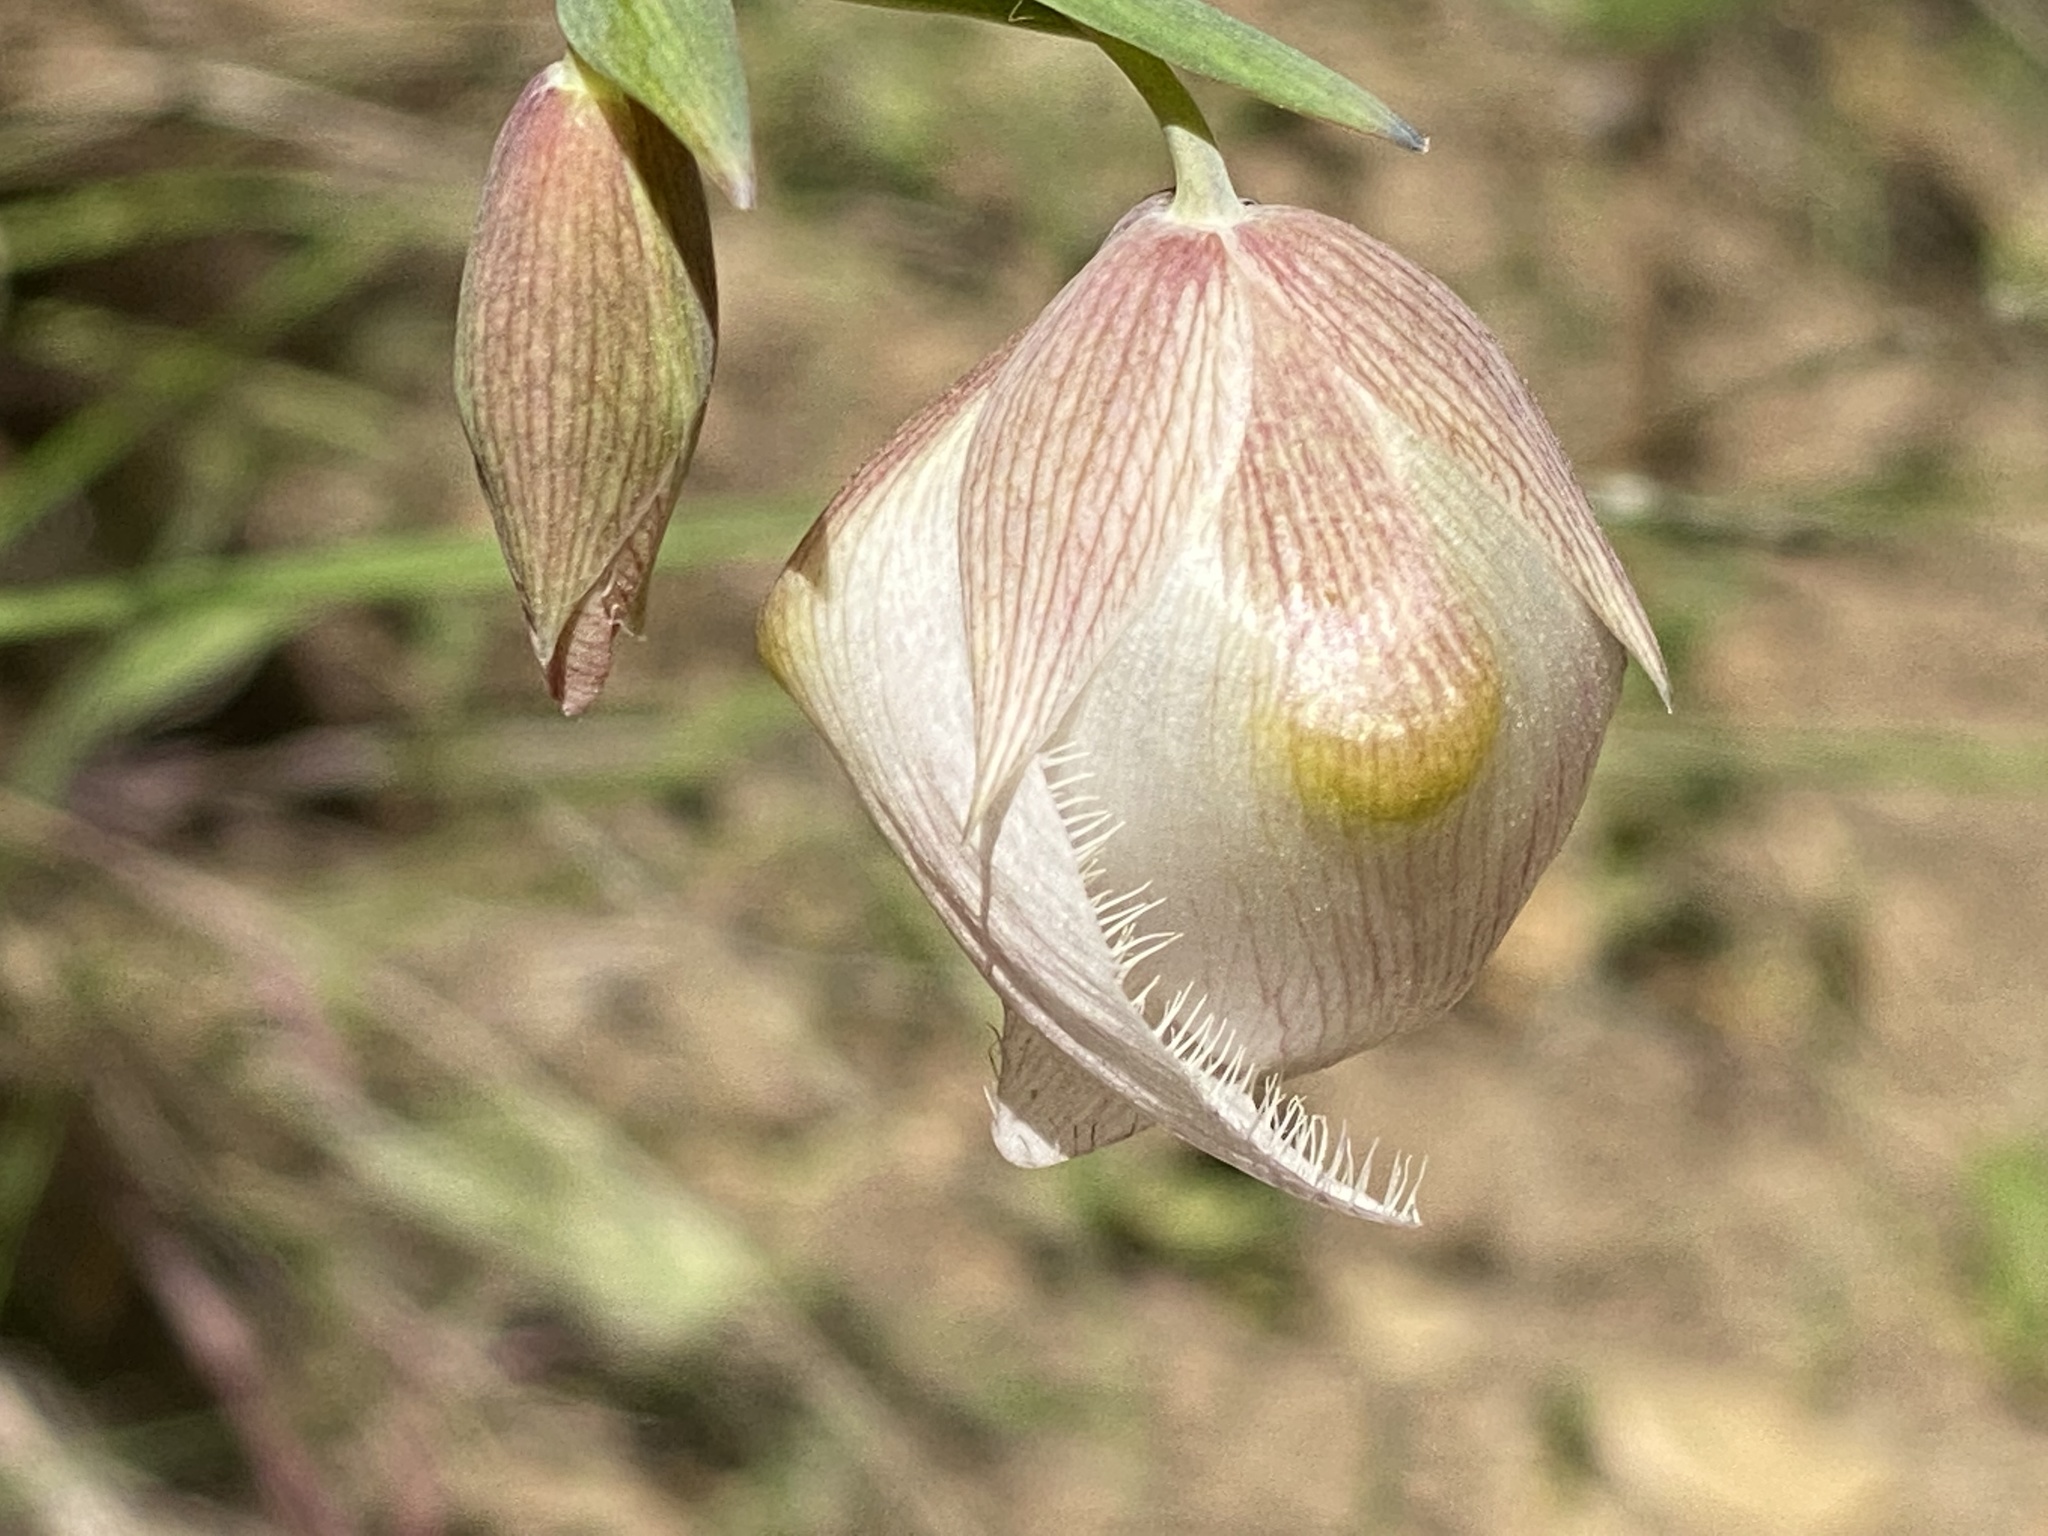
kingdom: Plantae
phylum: Tracheophyta
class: Liliopsida
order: Liliales
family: Liliaceae
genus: Calochortus
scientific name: Calochortus albus
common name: Fairy-lantern
